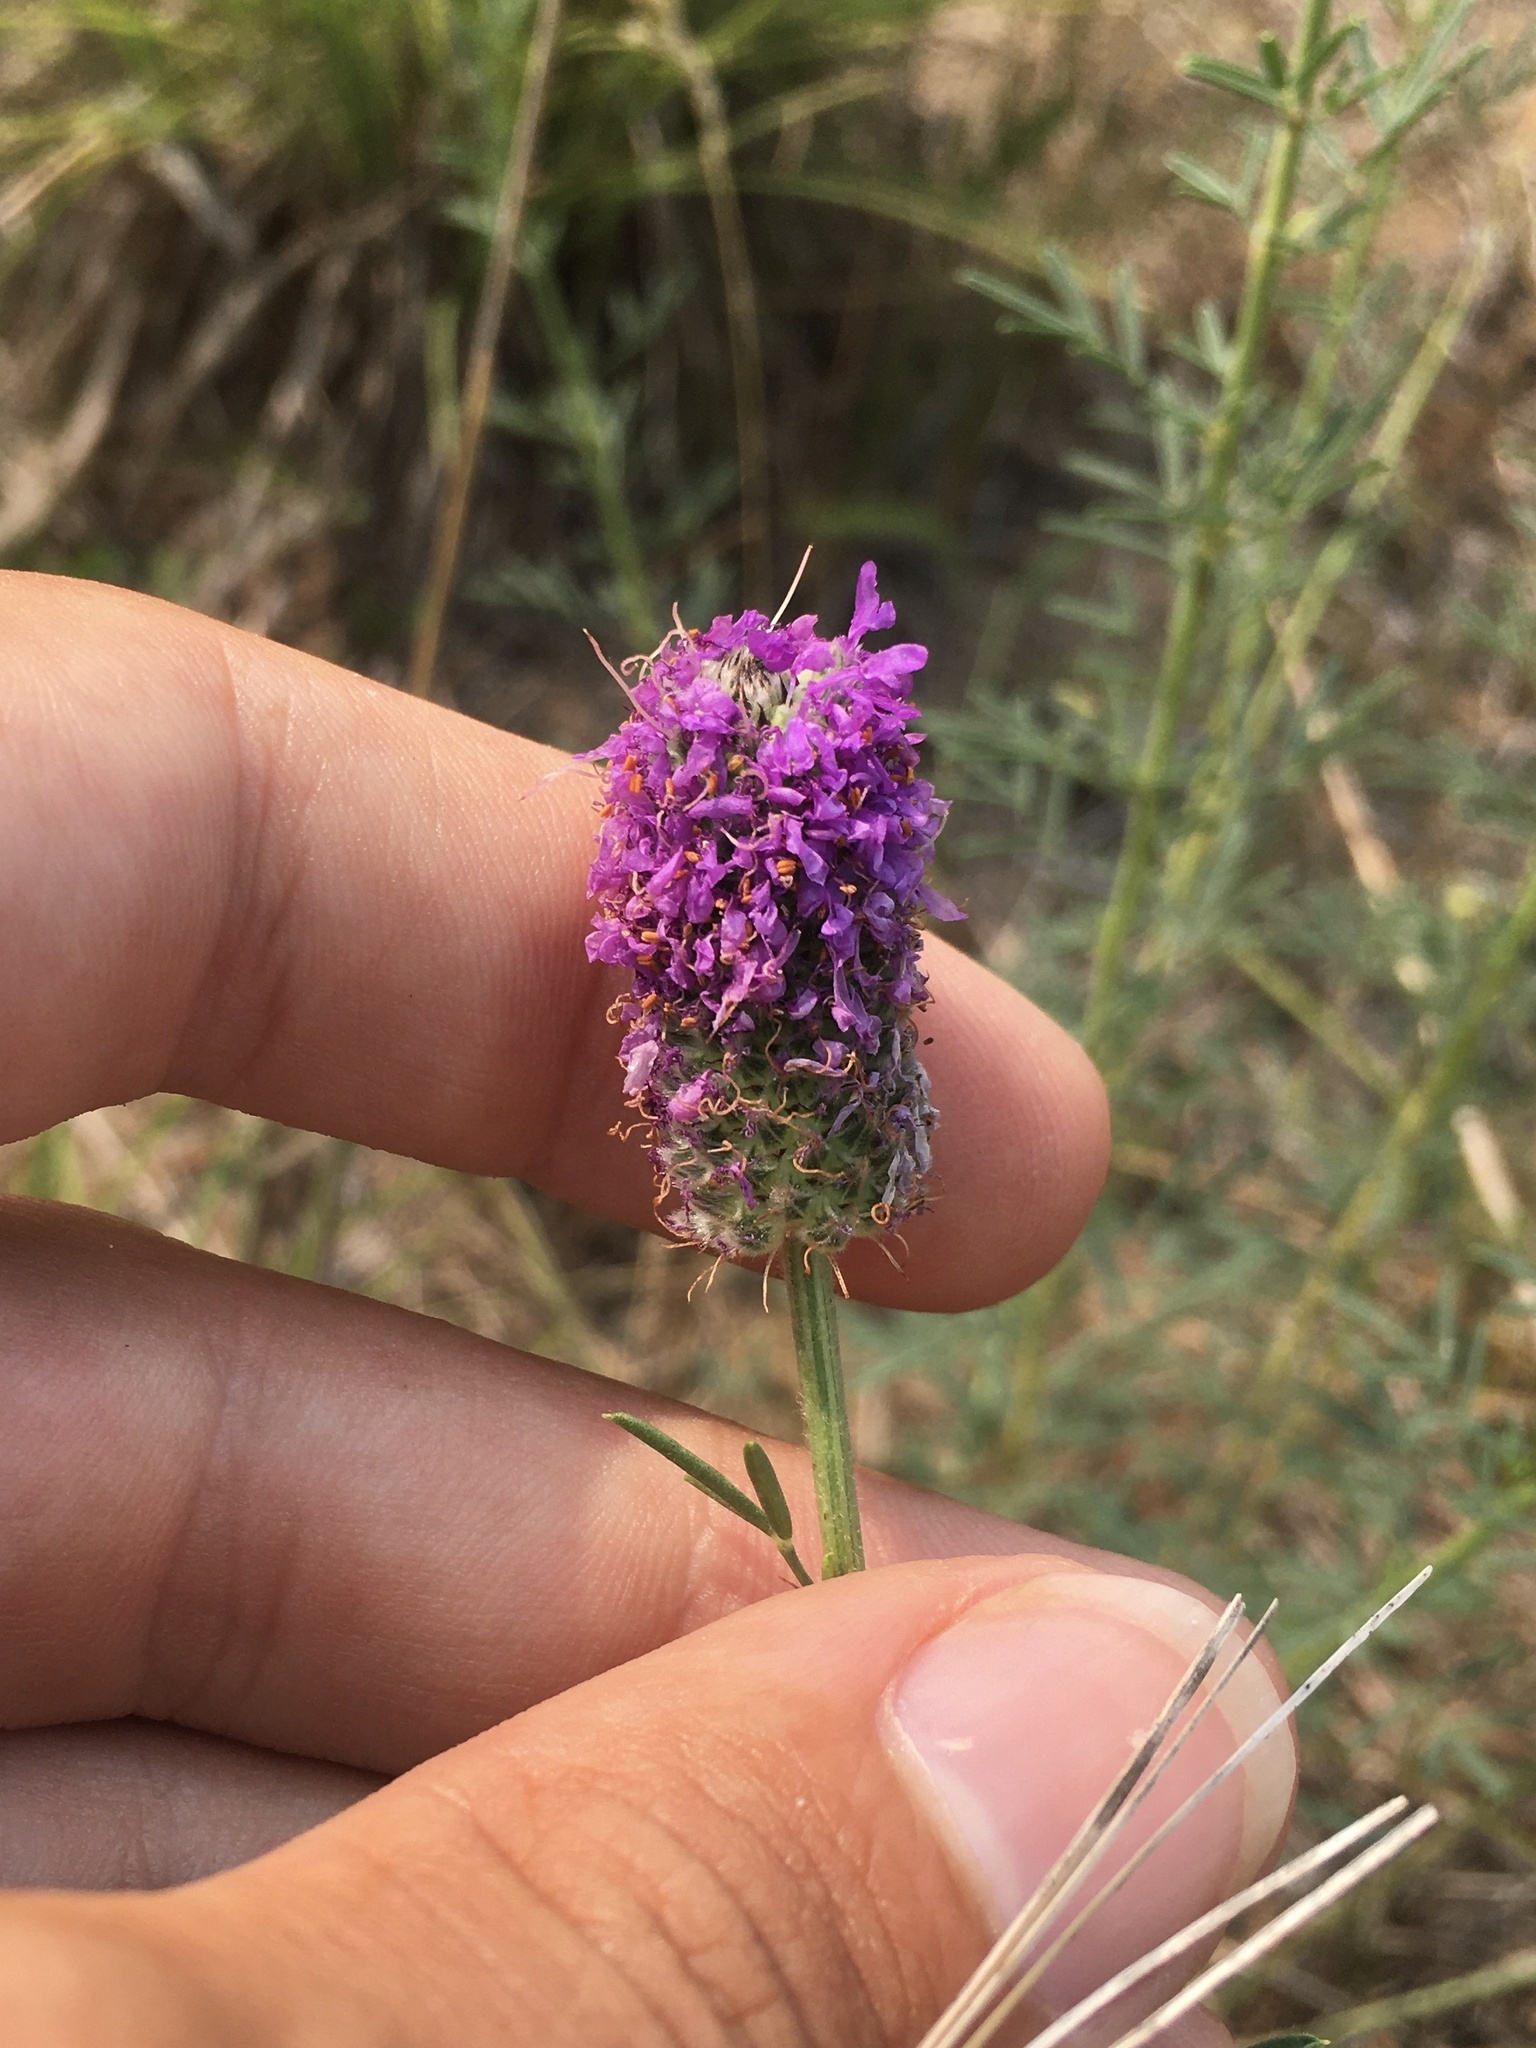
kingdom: Plantae
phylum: Tracheophyta
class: Magnoliopsida
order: Fabales
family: Fabaceae
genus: Dalea
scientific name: Dalea purpurea
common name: Purple prairie-clover
